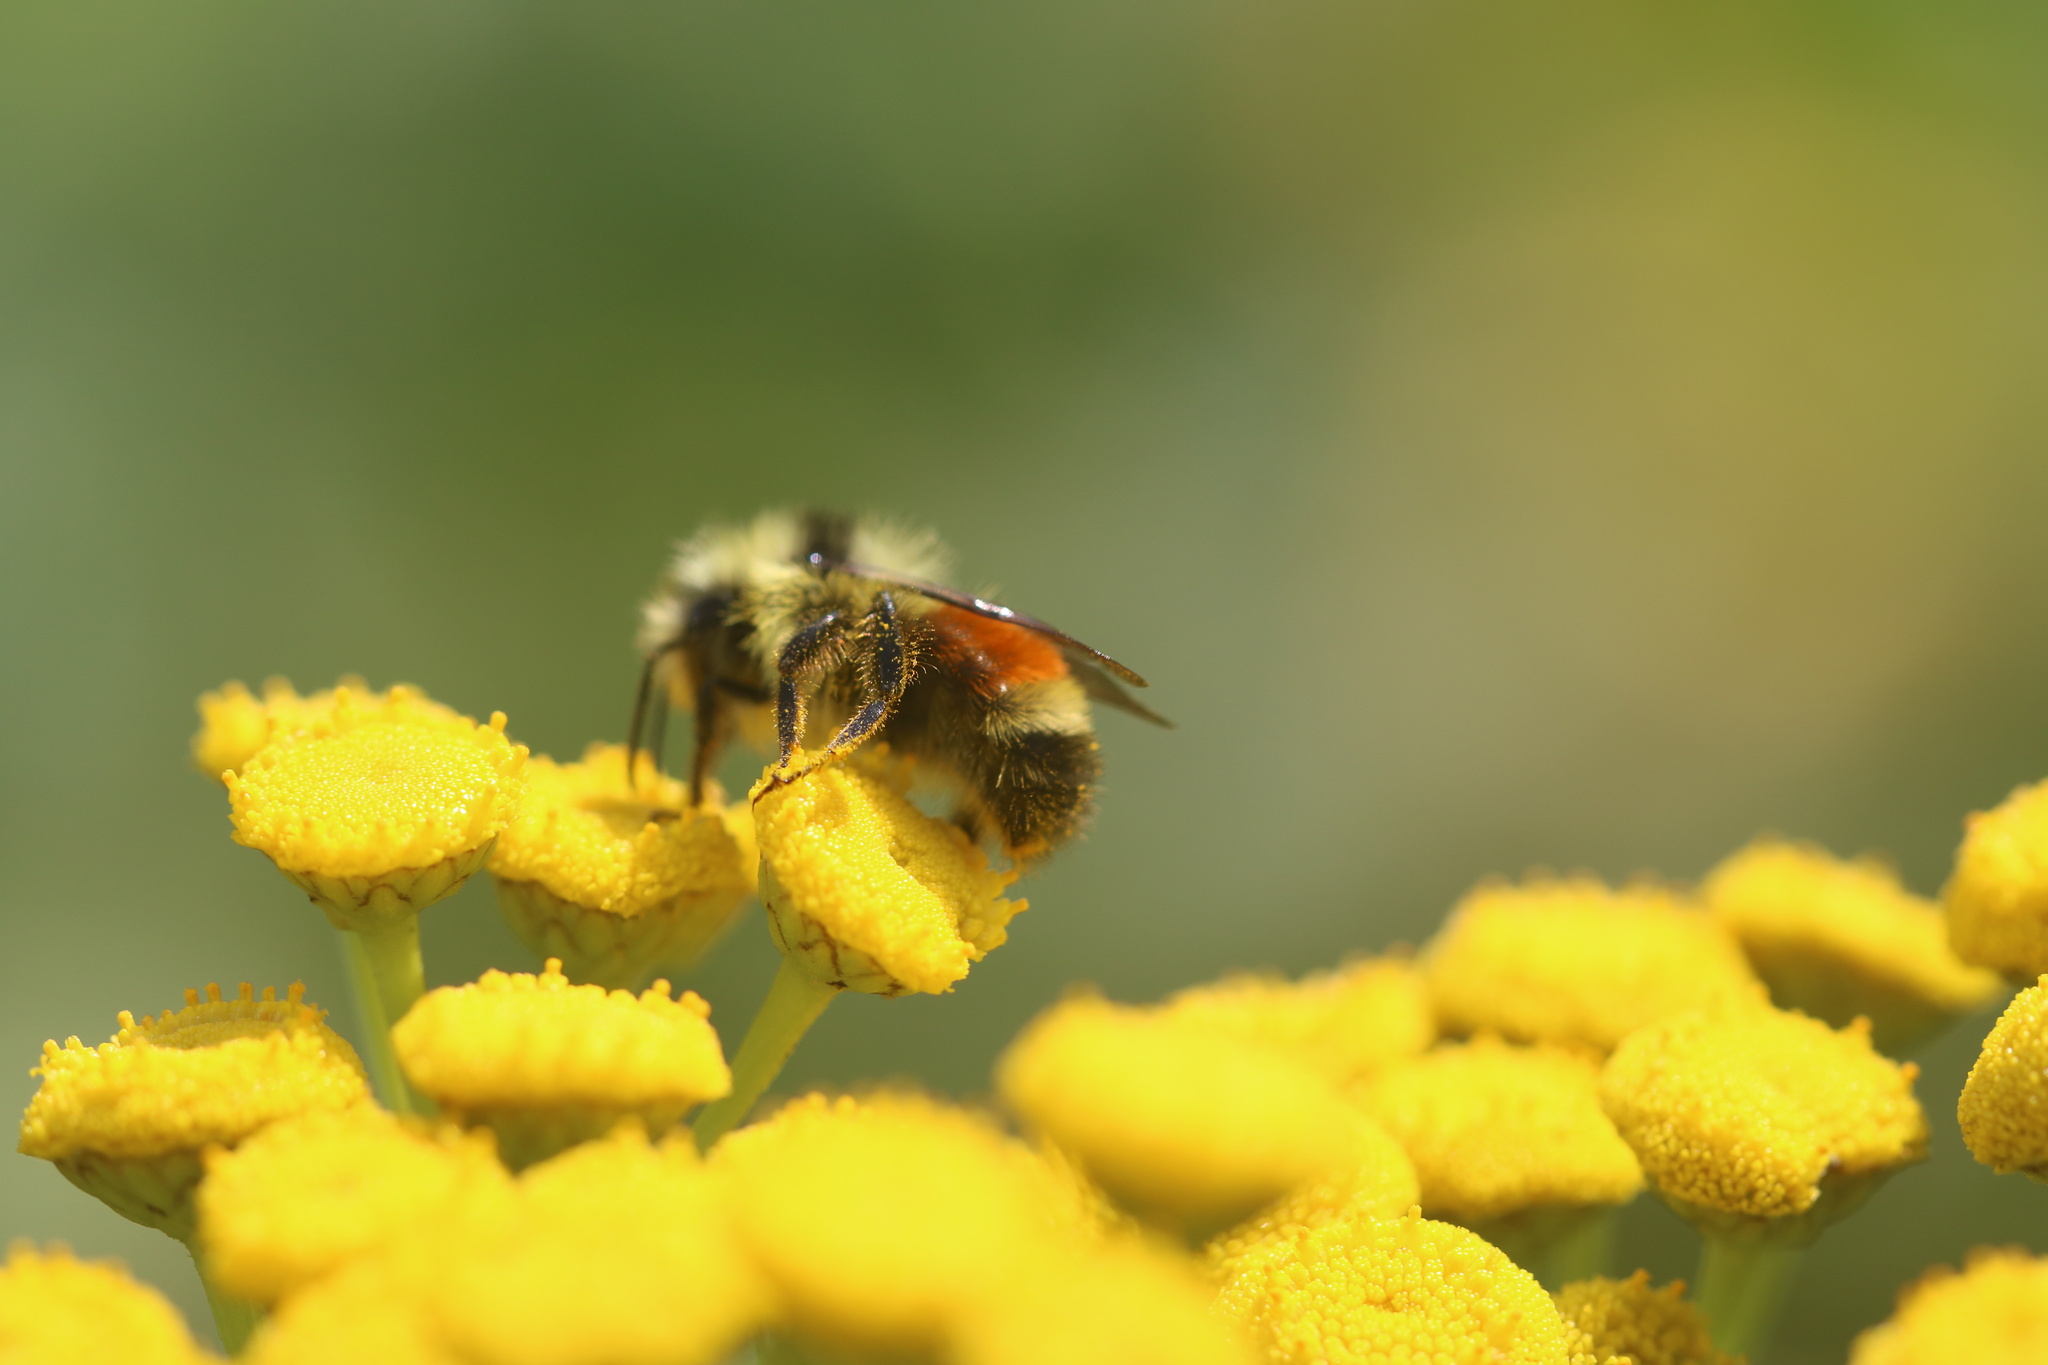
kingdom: Animalia
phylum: Arthropoda
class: Insecta
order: Hymenoptera
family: Apidae
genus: Bombus
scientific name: Bombus ternarius
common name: Tri-colored bumble bee
